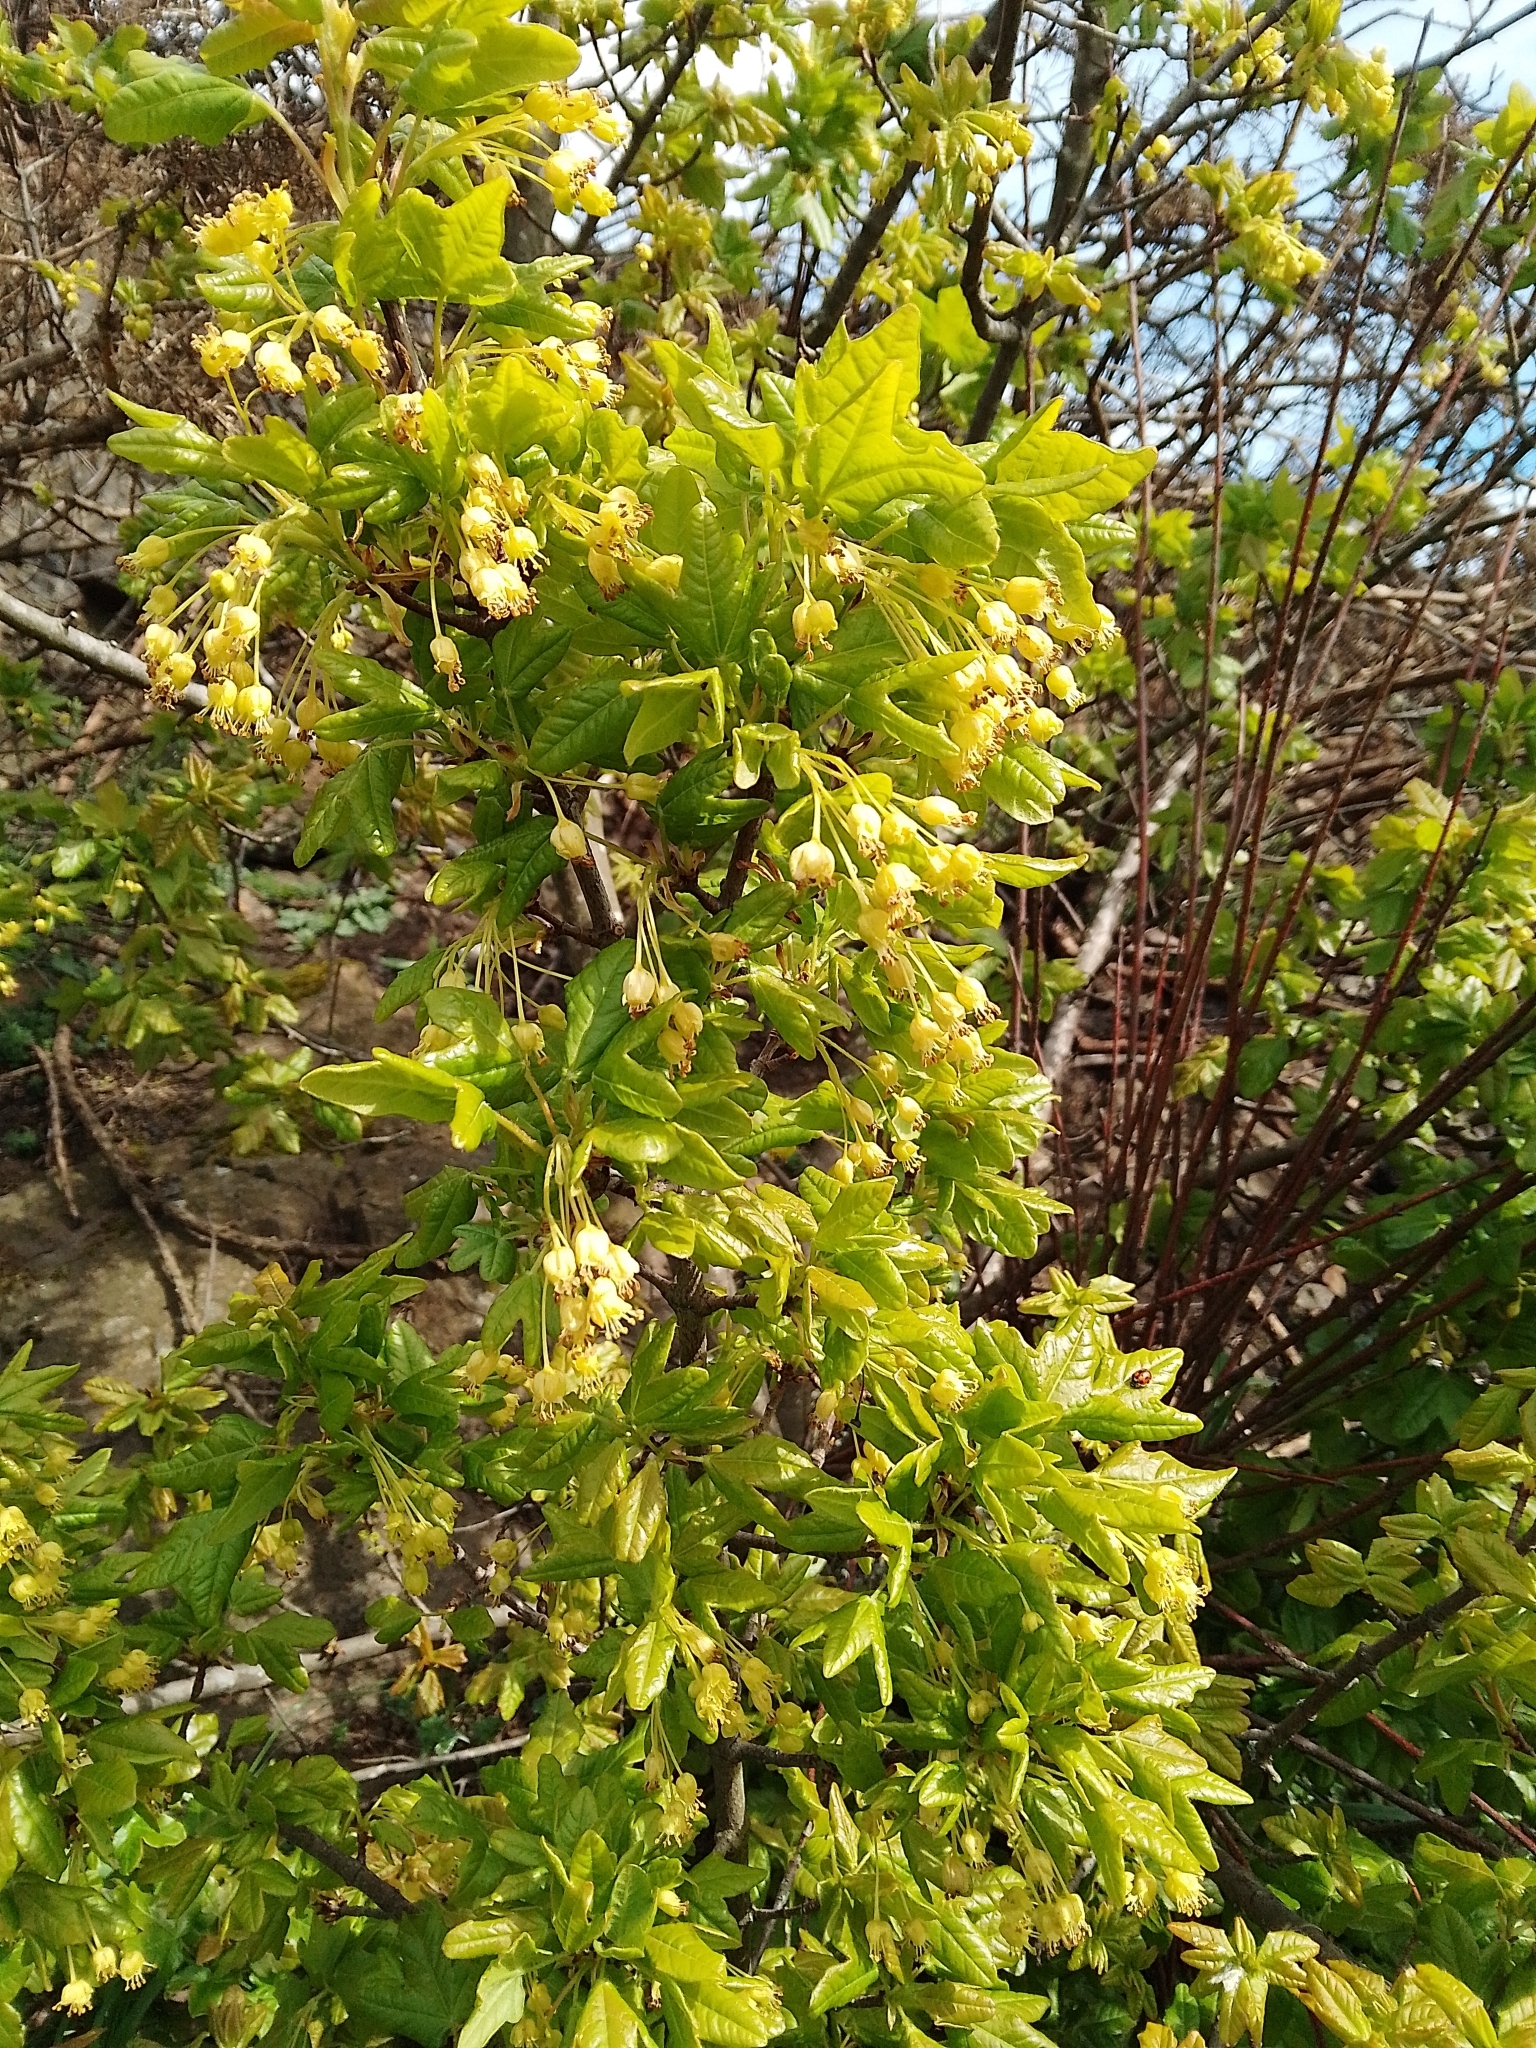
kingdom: Plantae
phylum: Tracheophyta
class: Magnoliopsida
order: Sapindales
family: Sapindaceae
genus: Acer
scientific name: Acer campestre
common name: Field maple
